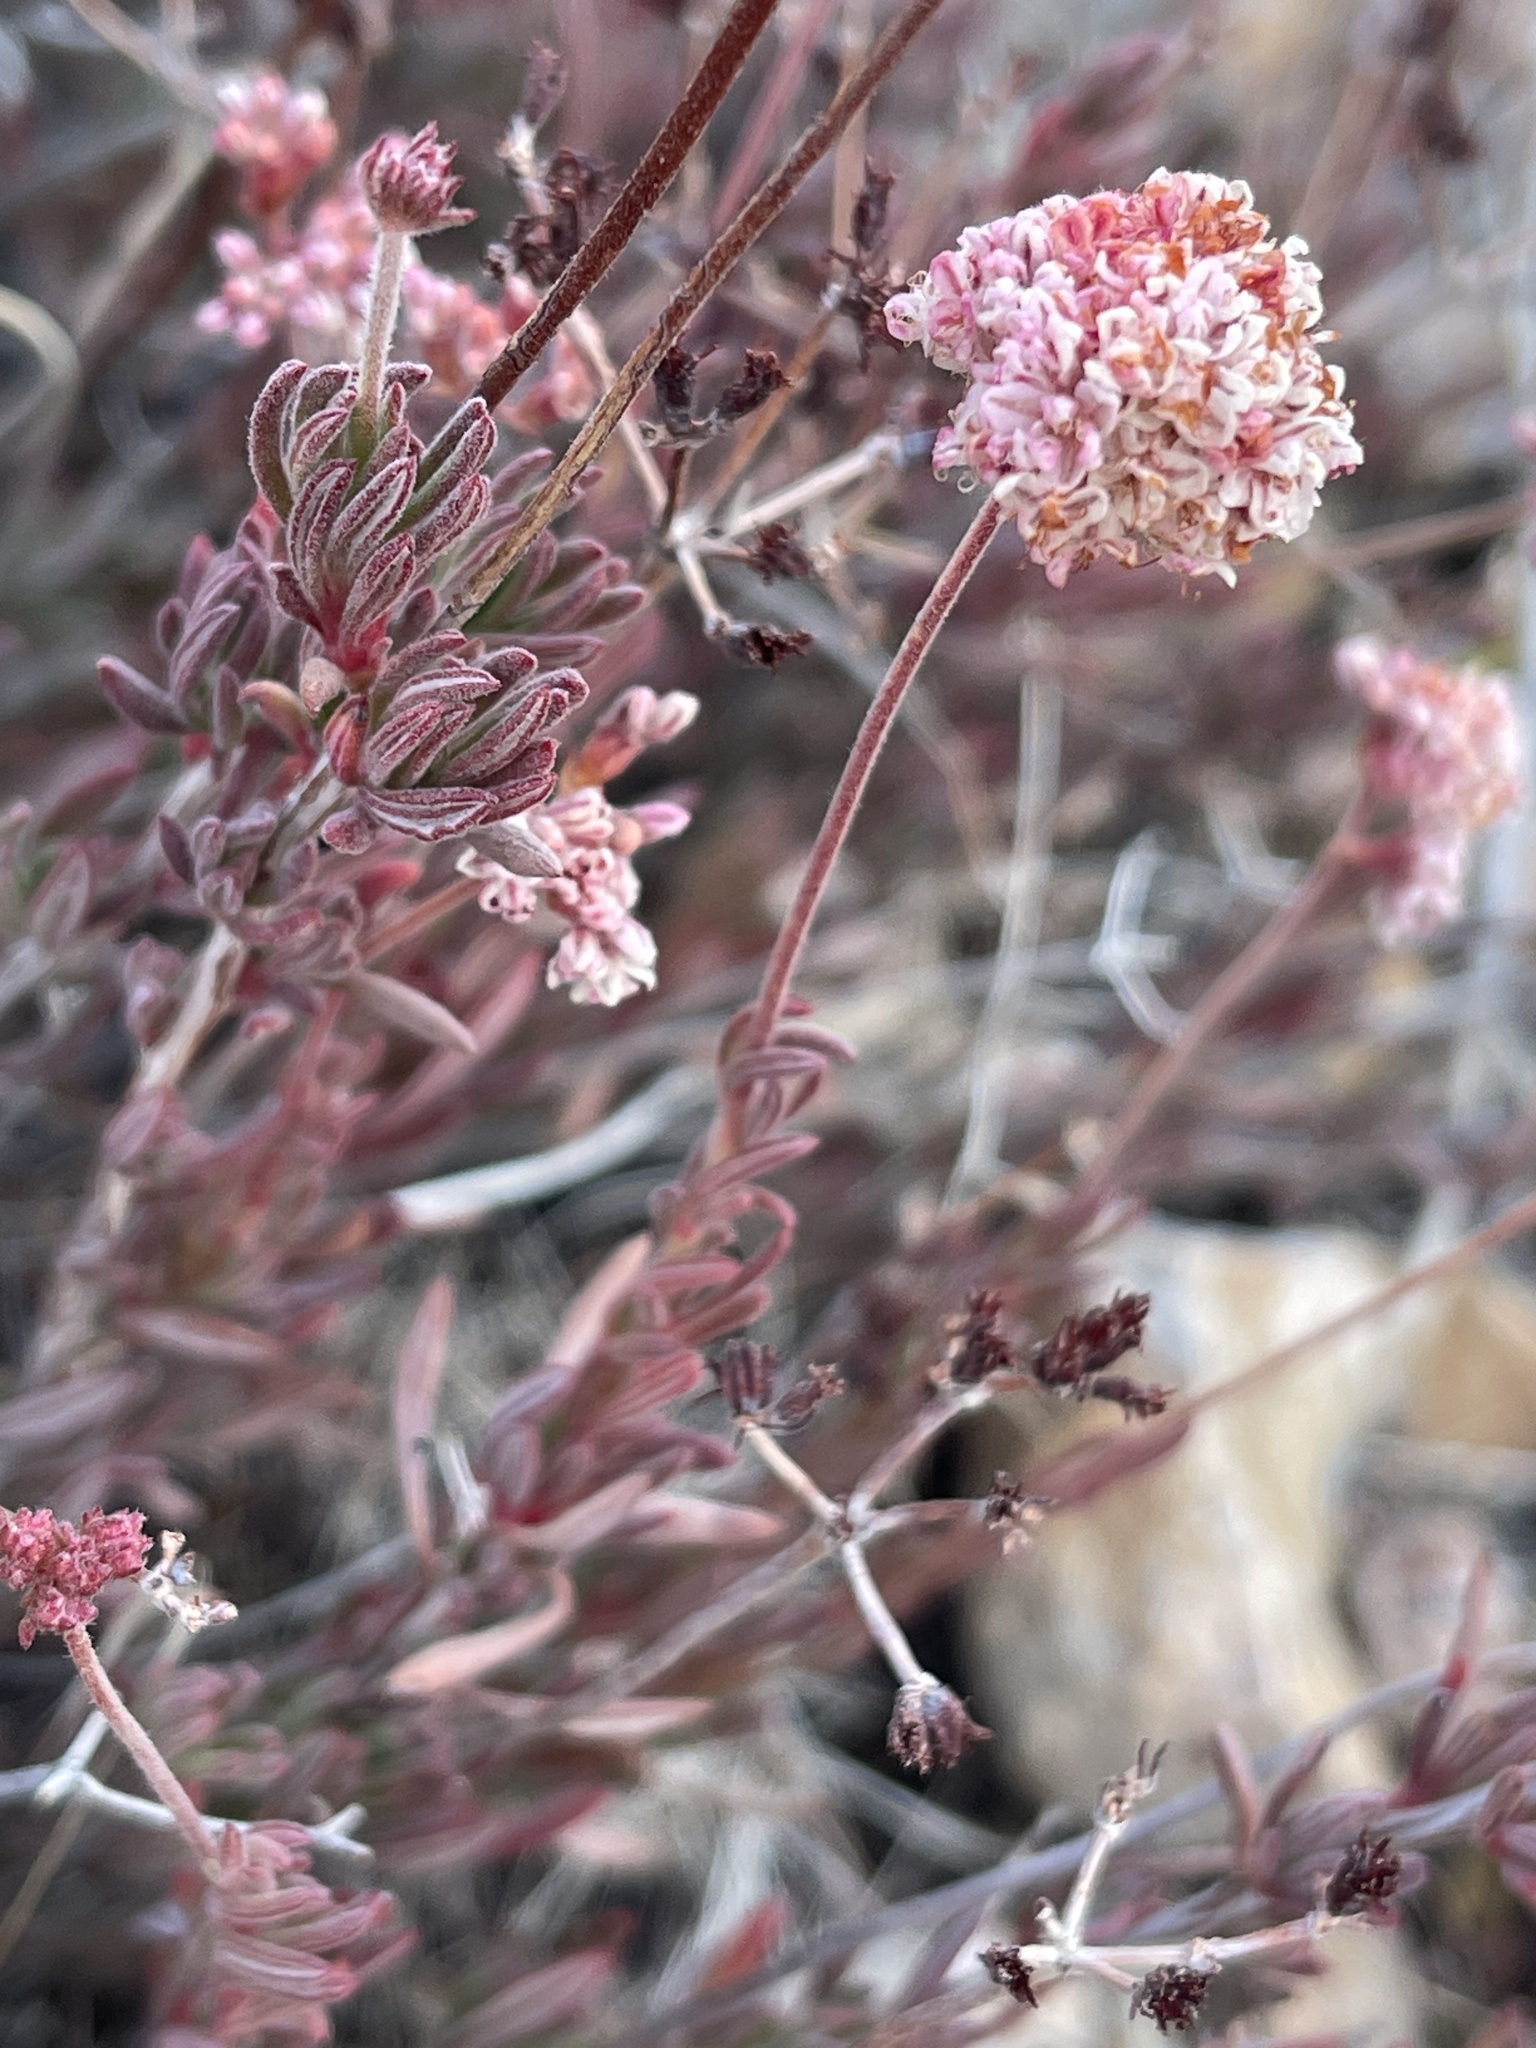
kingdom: Plantae
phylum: Tracheophyta
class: Magnoliopsida
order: Caryophyllales
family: Polygonaceae
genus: Eriogonum
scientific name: Eriogonum fasciculatum
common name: California wild buckwheat
